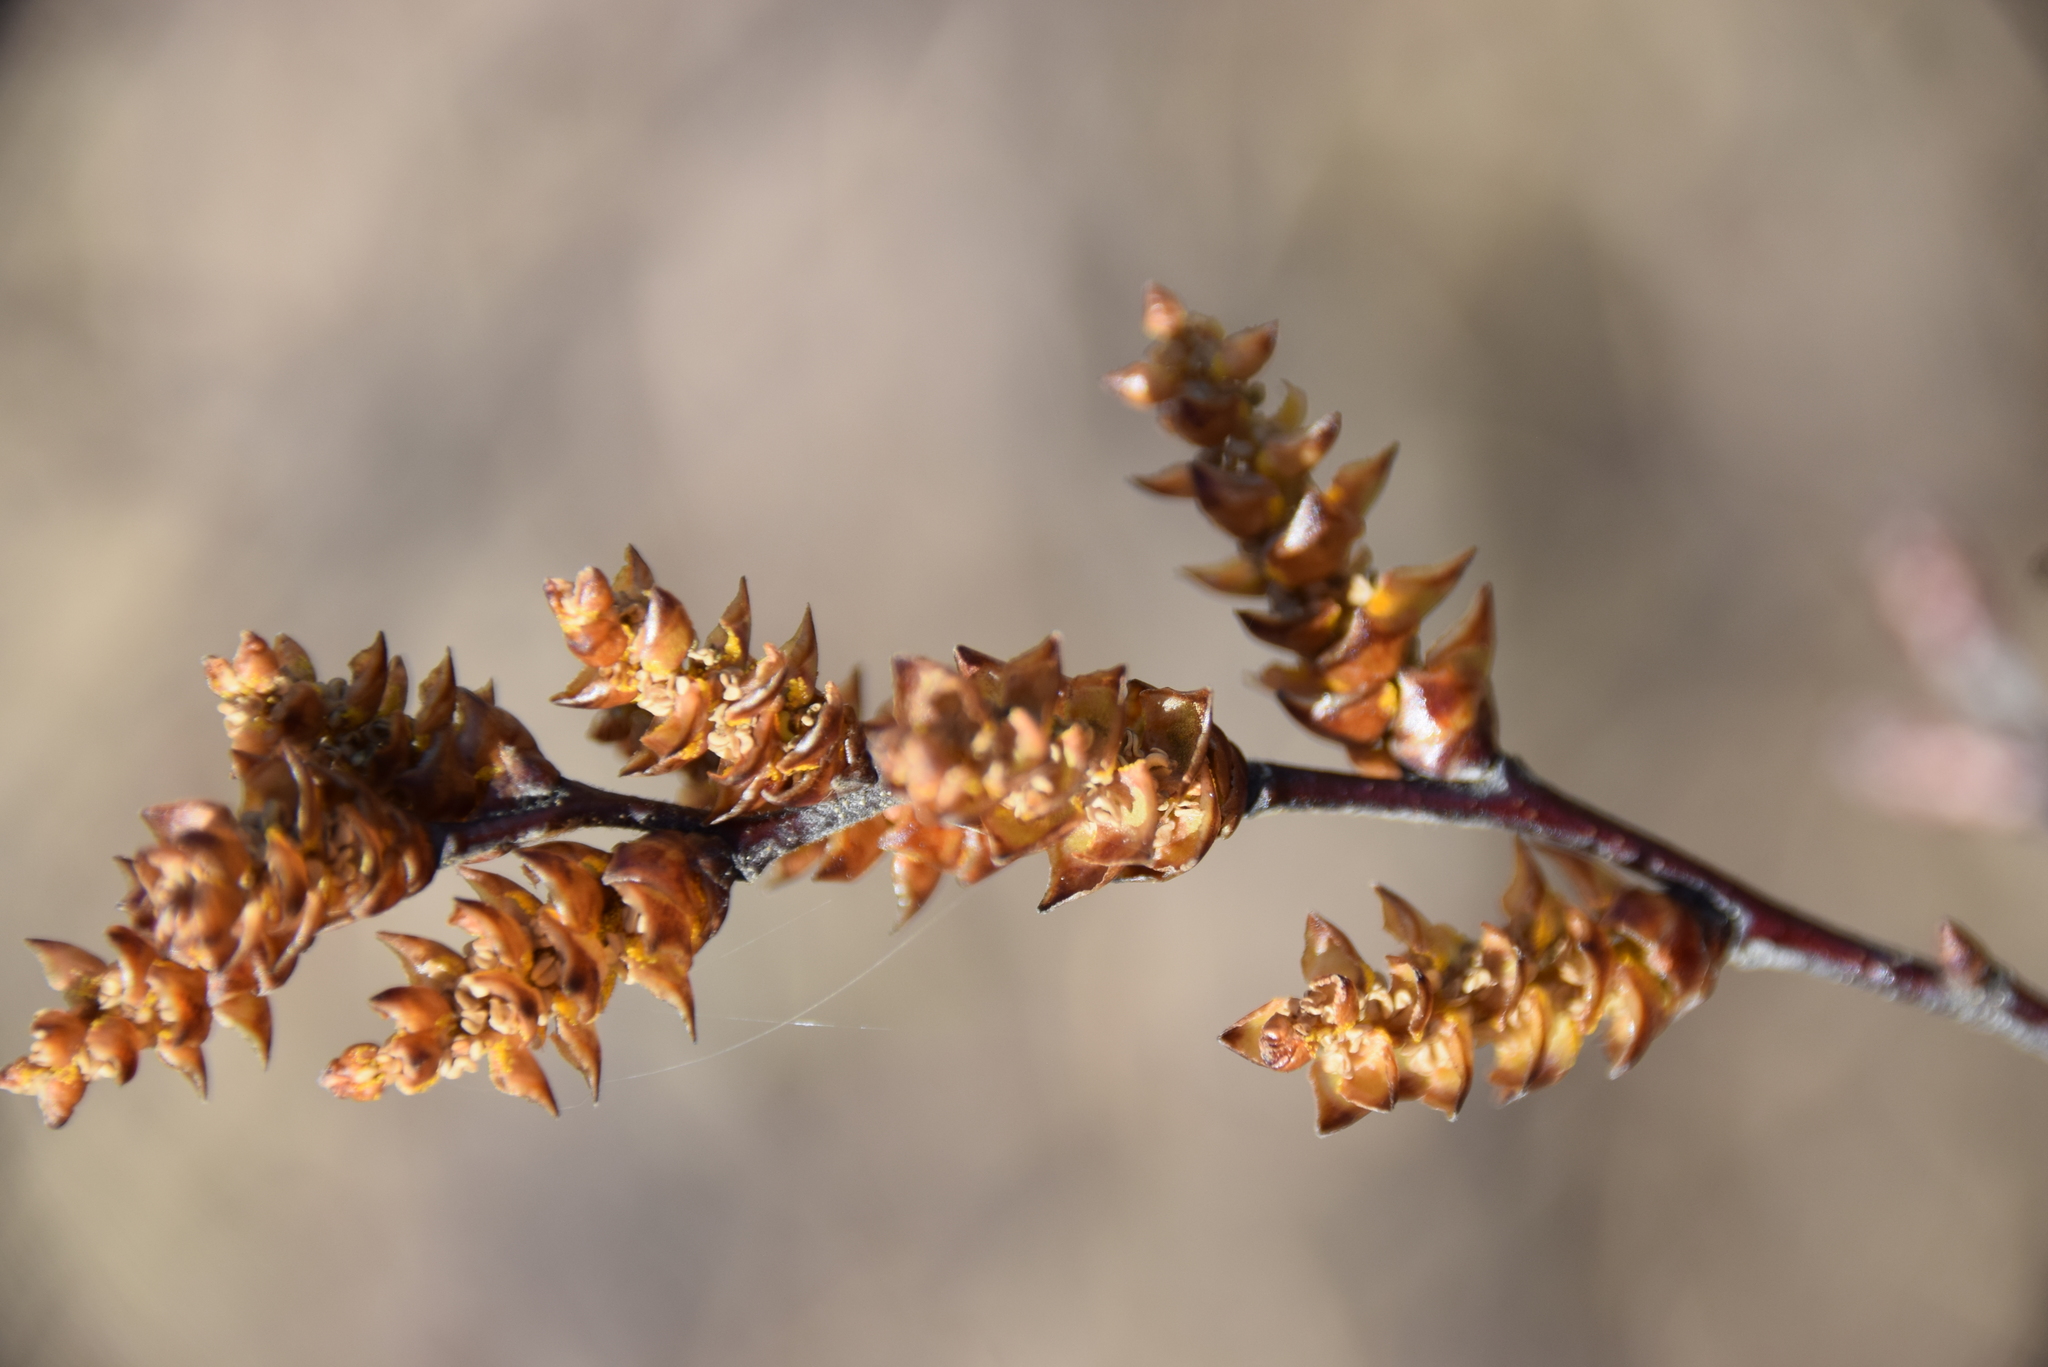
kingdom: Plantae
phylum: Tracheophyta
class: Magnoliopsida
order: Fagales
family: Myricaceae
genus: Myrica
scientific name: Myrica gale
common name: Sweet gale
